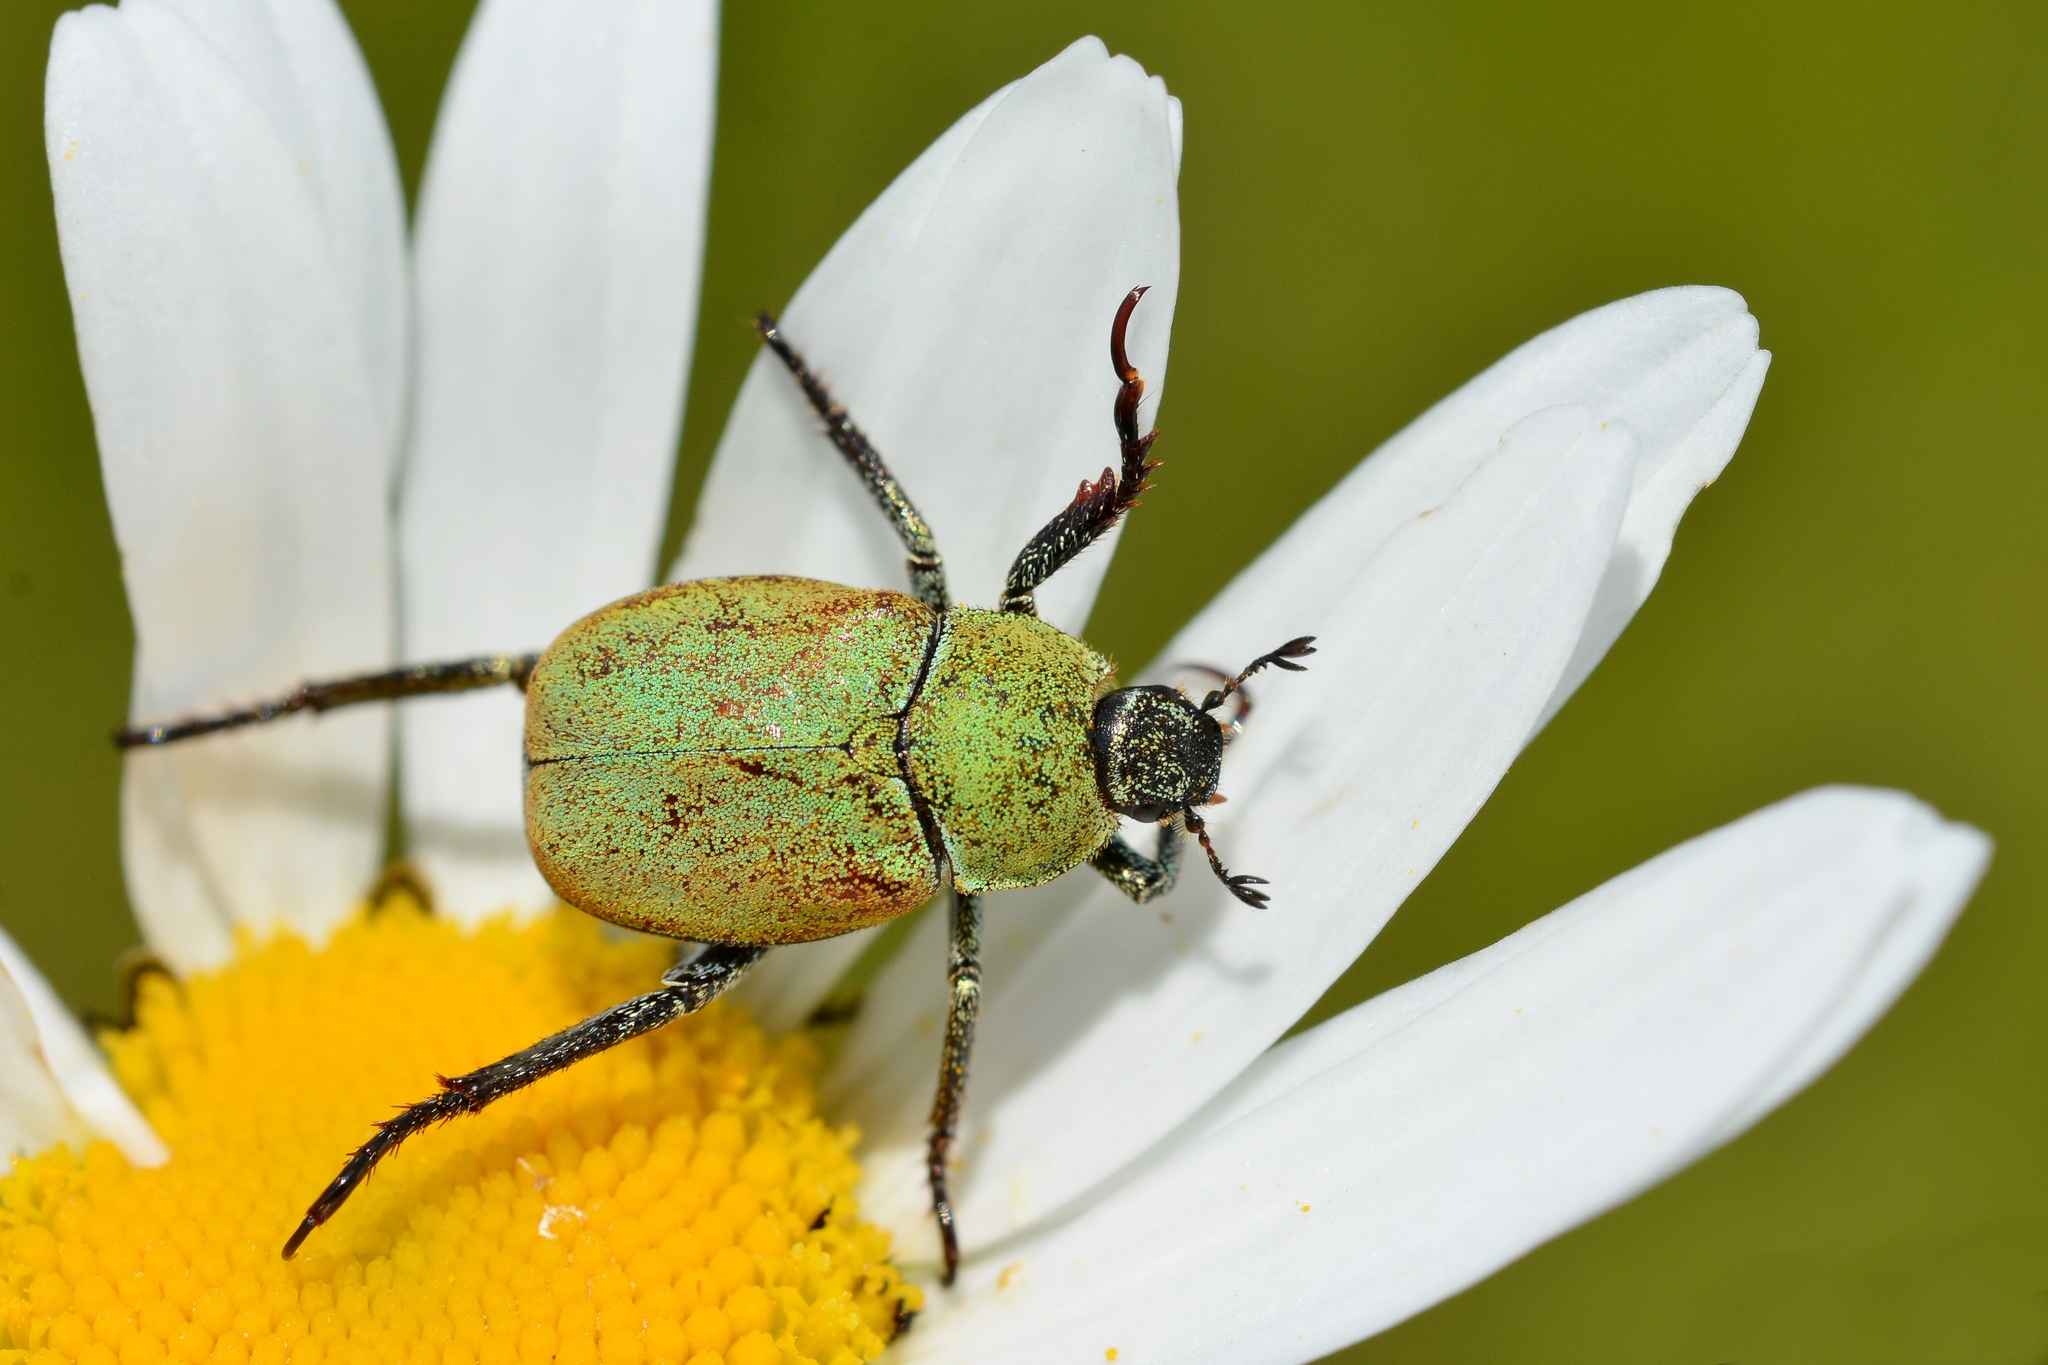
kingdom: Animalia
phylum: Arthropoda
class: Insecta
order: Coleoptera
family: Scarabaeidae
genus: Hoplia
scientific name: Hoplia argentea
